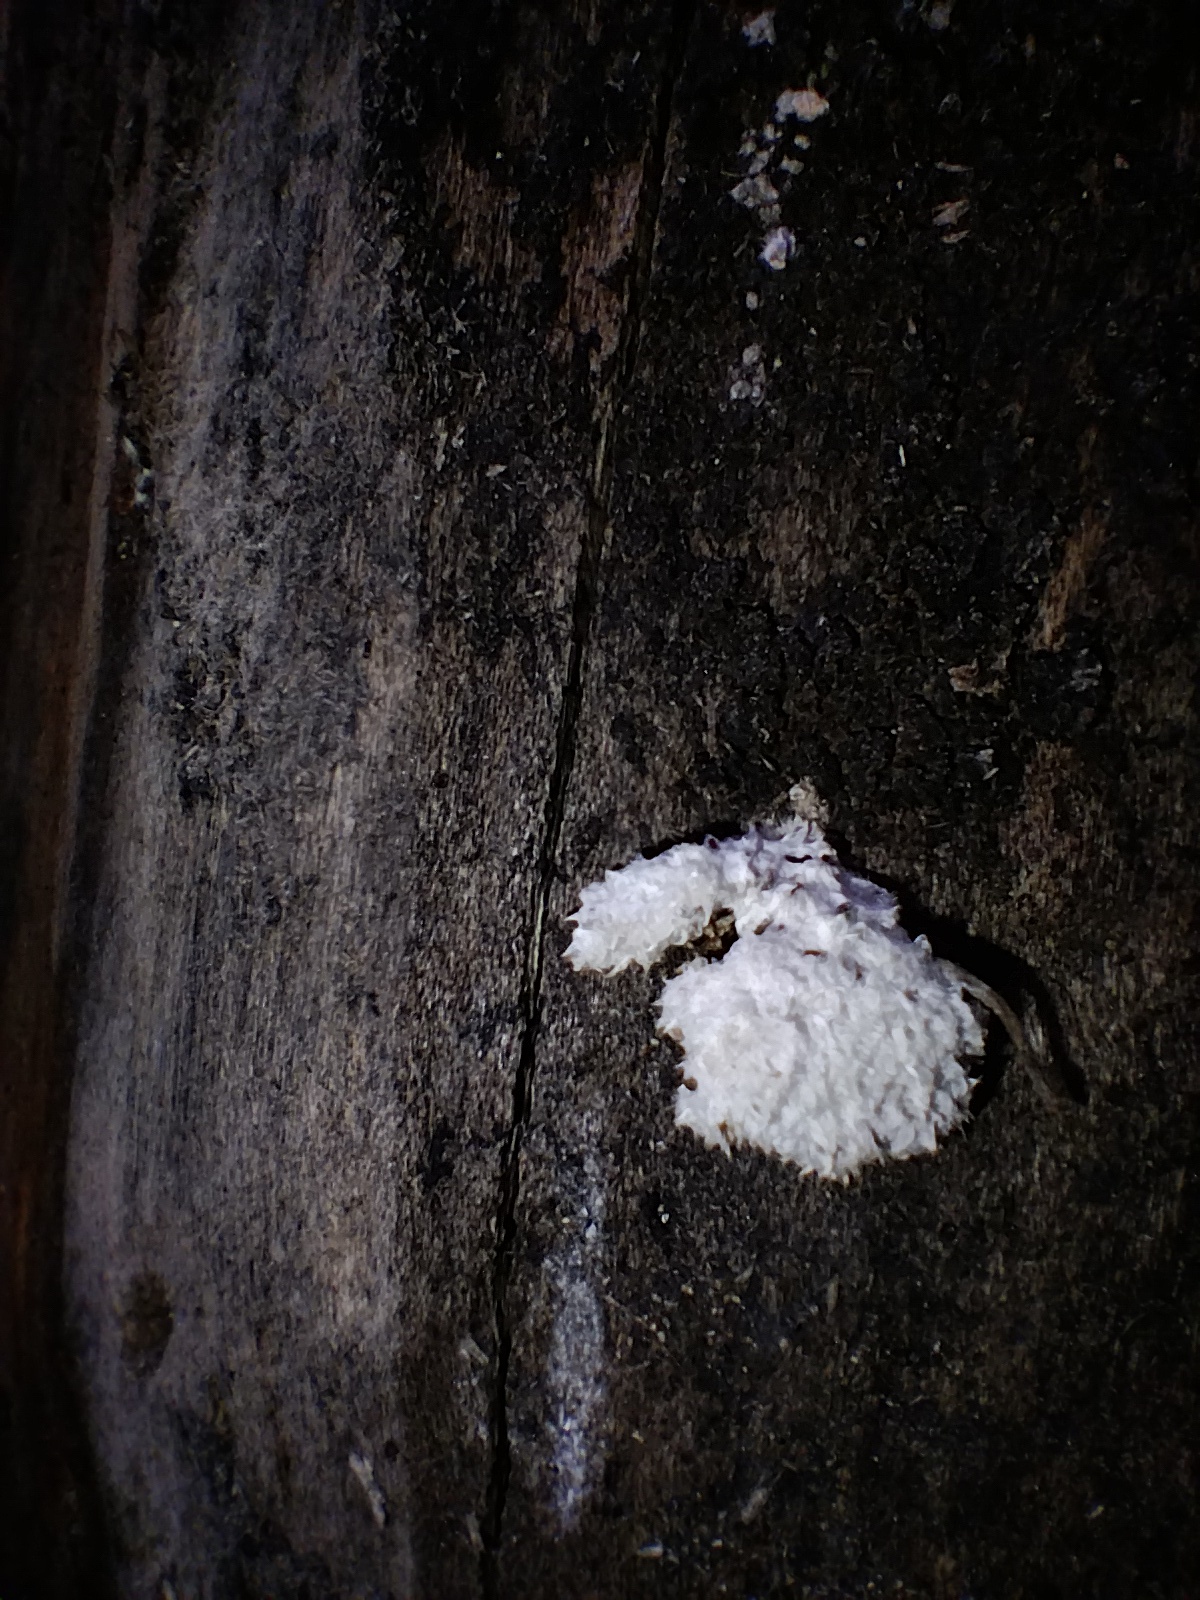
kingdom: Fungi
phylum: Basidiomycota
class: Agaricomycetes
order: Agaricales
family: Schizophyllaceae
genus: Schizophyllum
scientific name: Schizophyllum commune
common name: Common porecrust
